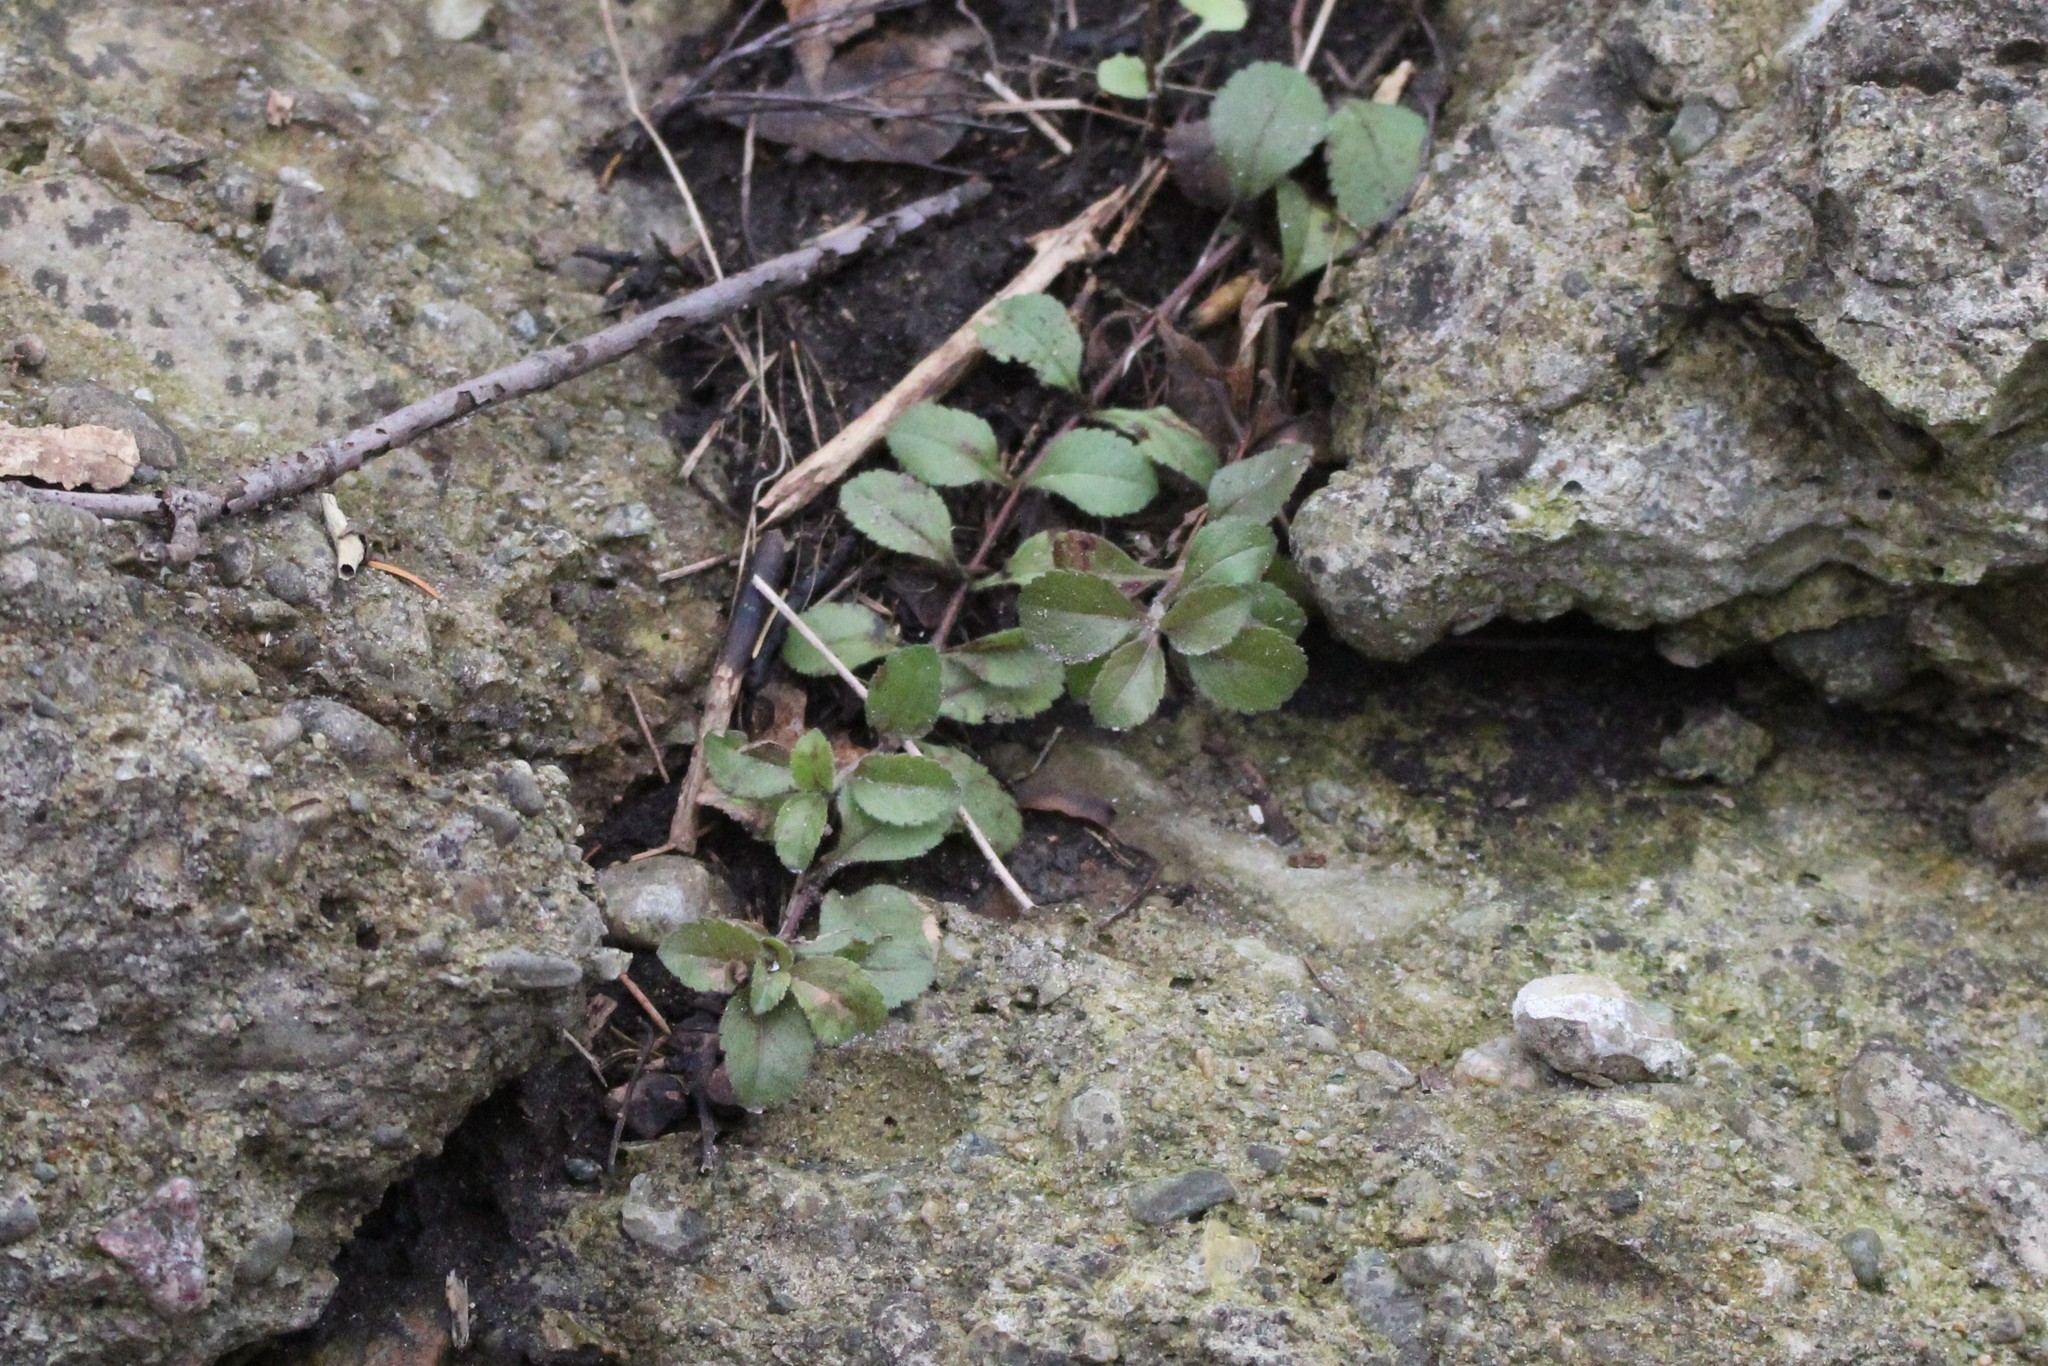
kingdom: Plantae
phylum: Tracheophyta
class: Magnoliopsida
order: Lamiales
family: Plantaginaceae
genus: Veronica
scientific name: Veronica officinalis
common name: Common speedwell
